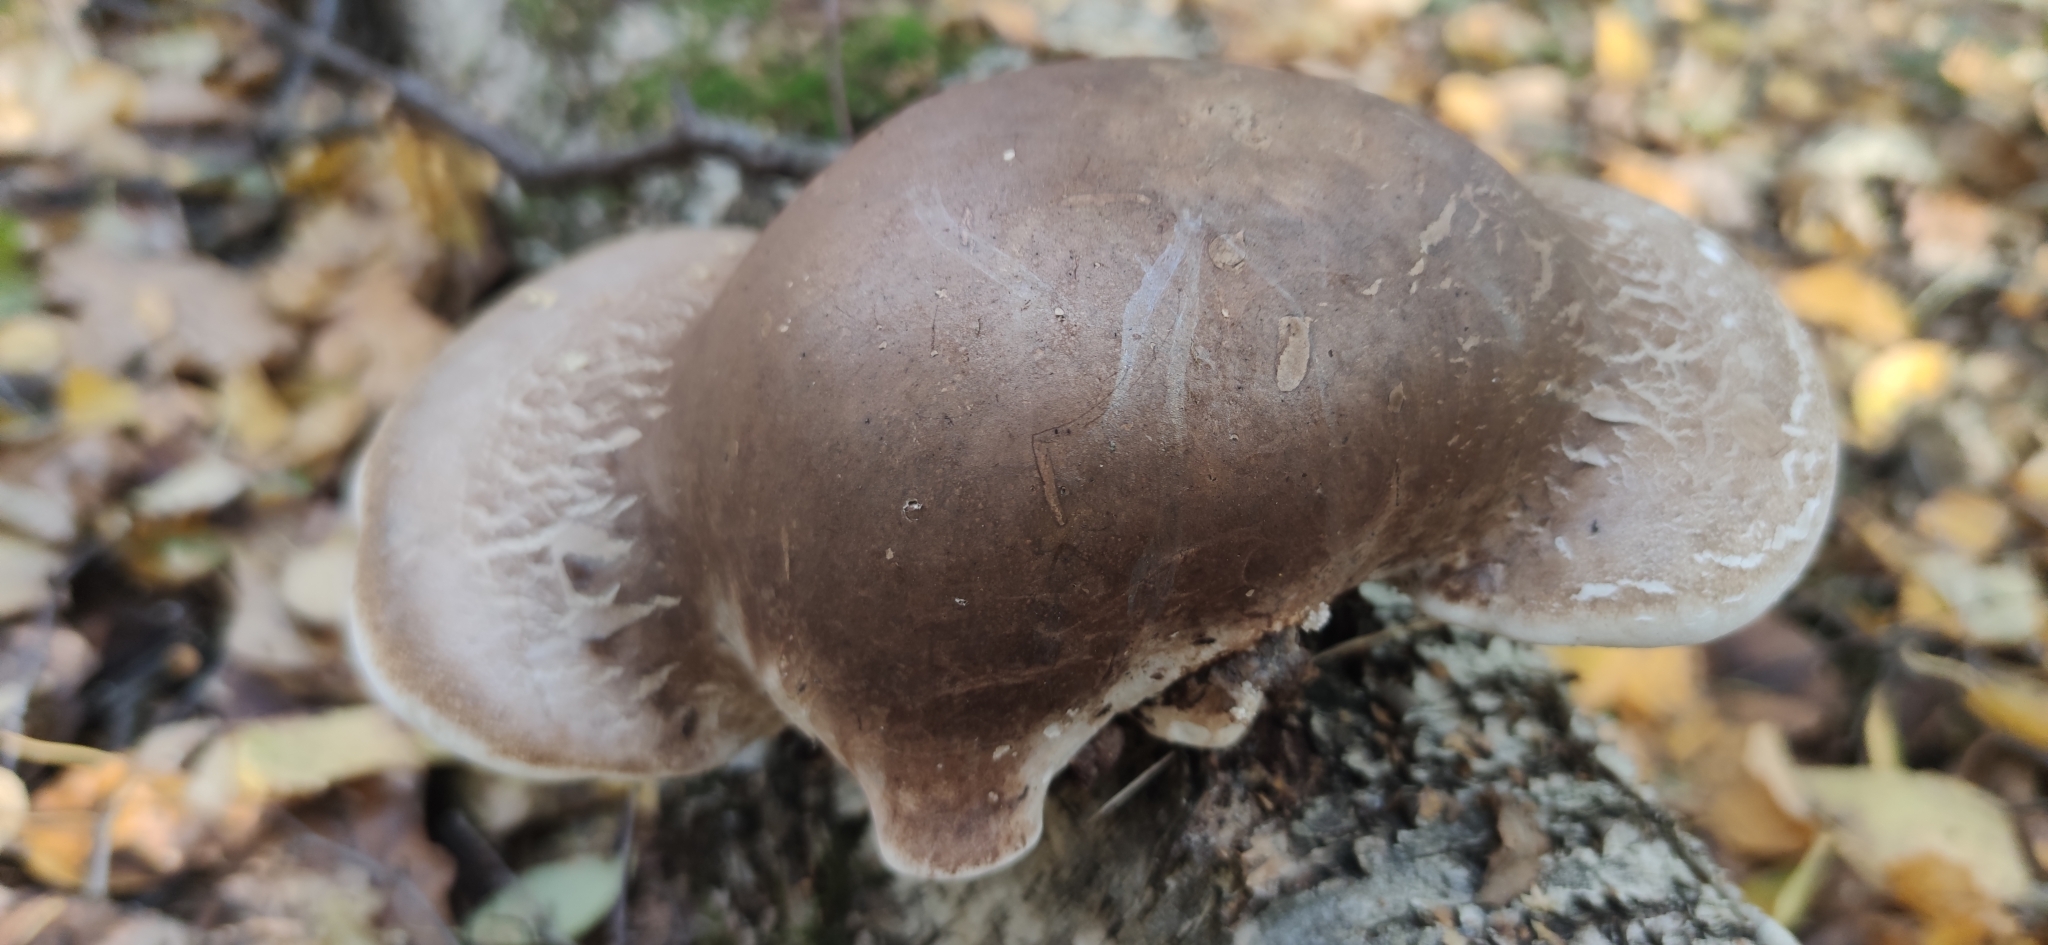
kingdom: Fungi
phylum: Basidiomycota
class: Agaricomycetes
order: Polyporales
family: Fomitopsidaceae
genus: Fomitopsis
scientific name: Fomitopsis betulina
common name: Birch polypore
